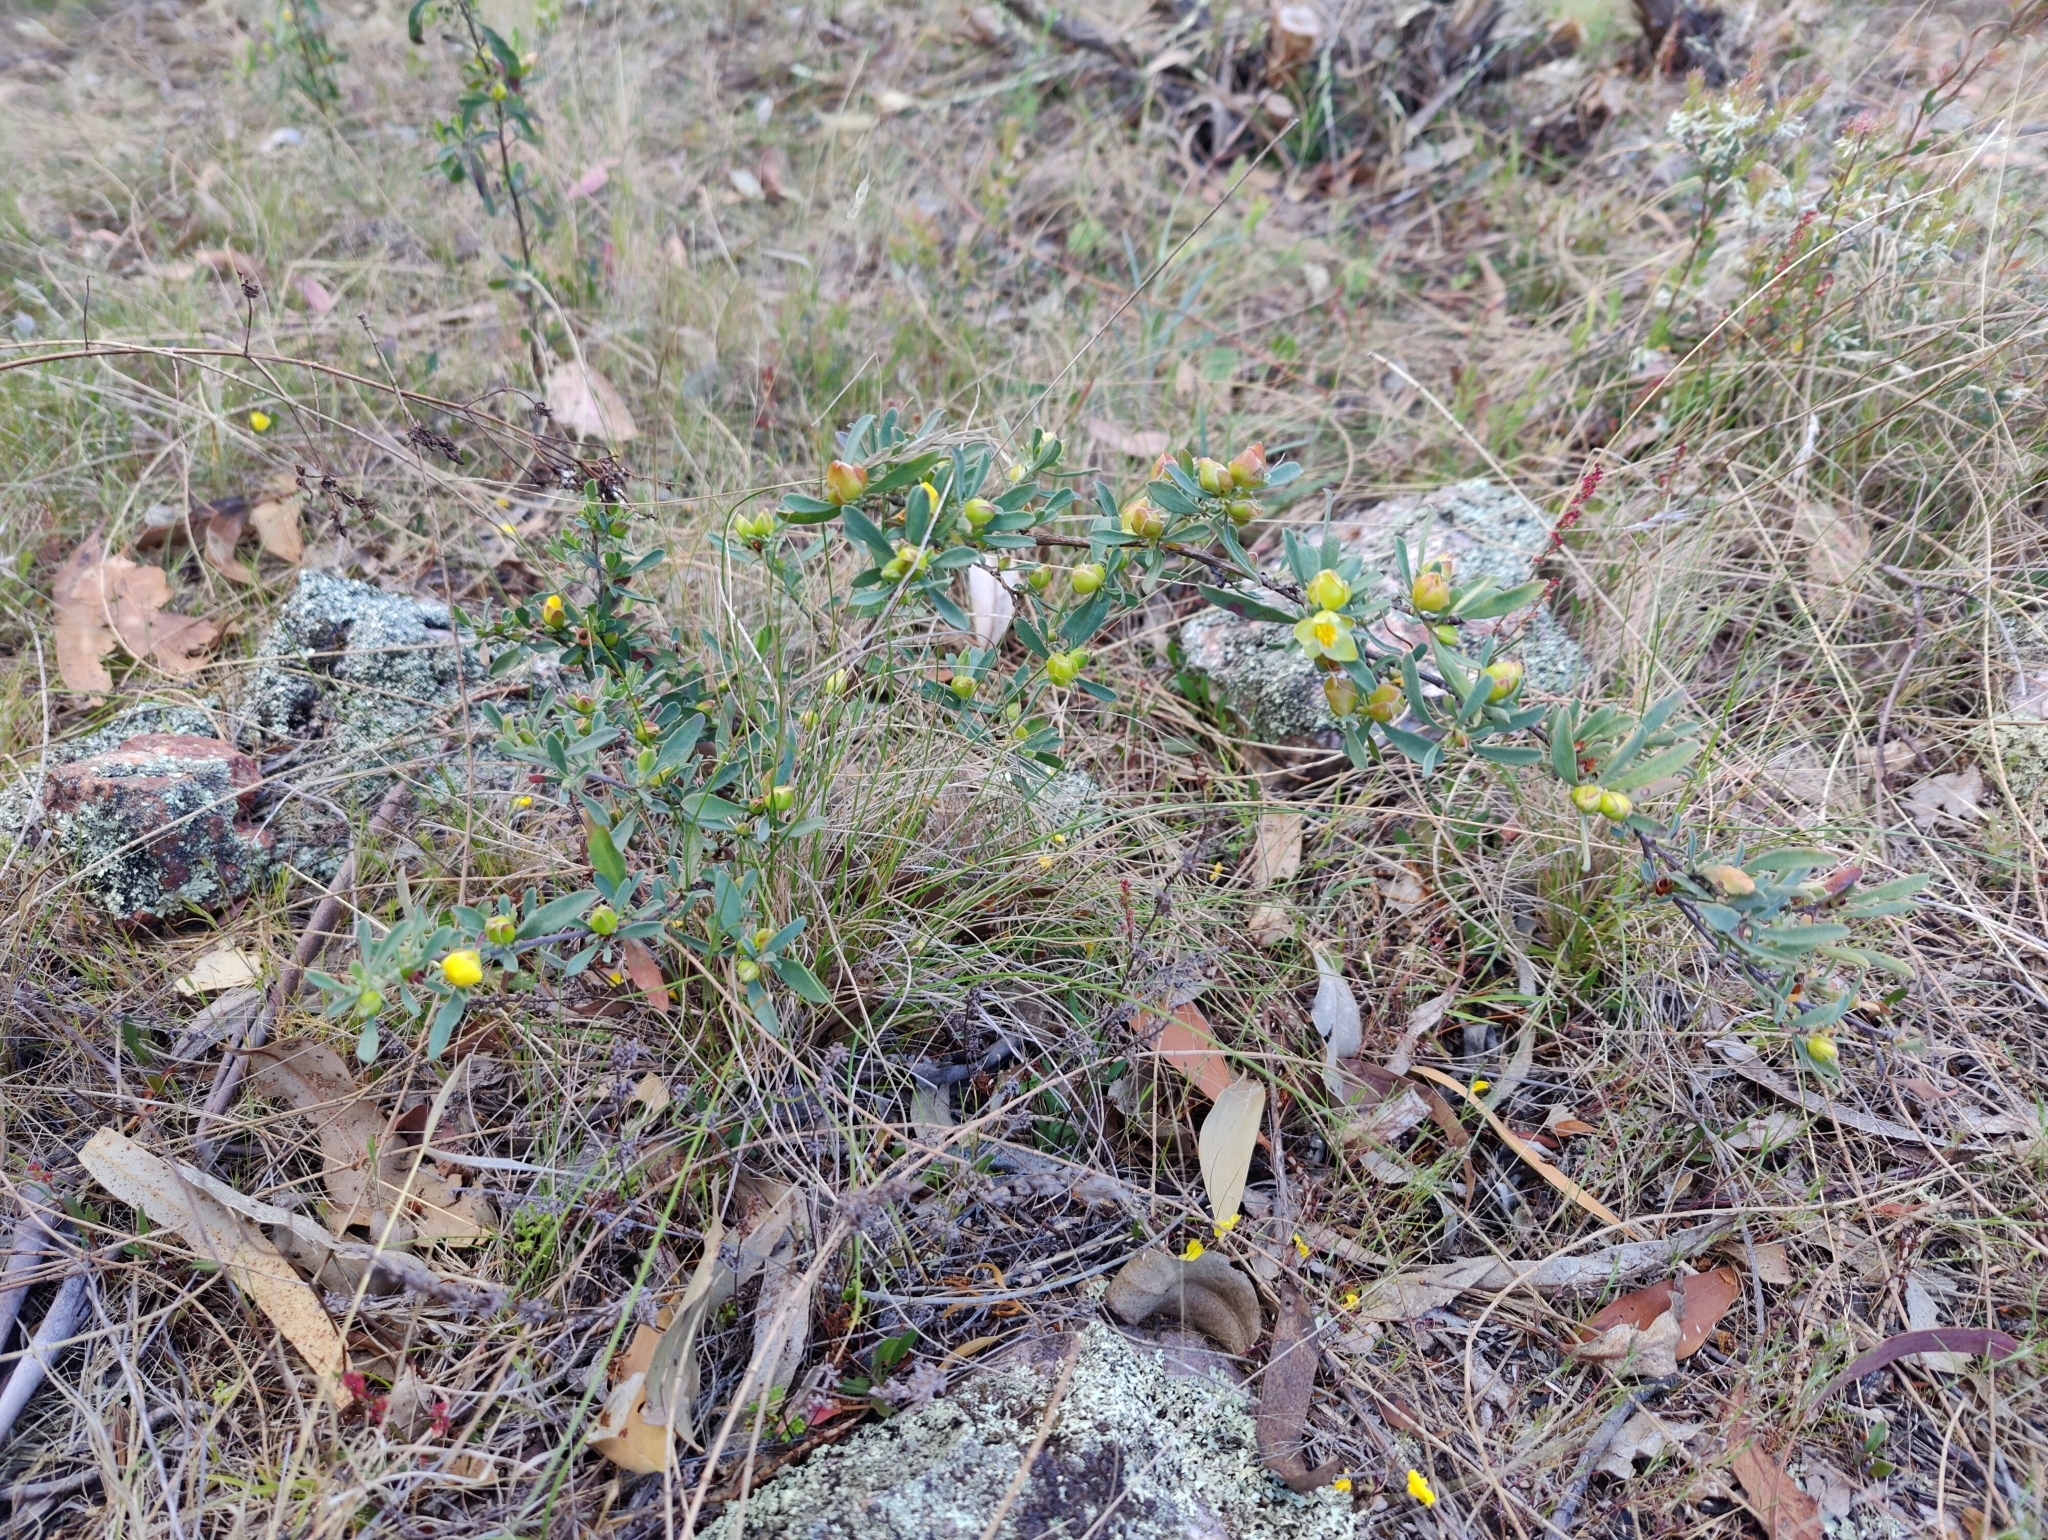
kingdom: Plantae
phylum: Tracheophyta
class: Magnoliopsida
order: Dilleniales
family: Dilleniaceae
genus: Hibbertia
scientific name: Hibbertia obtusifolia
